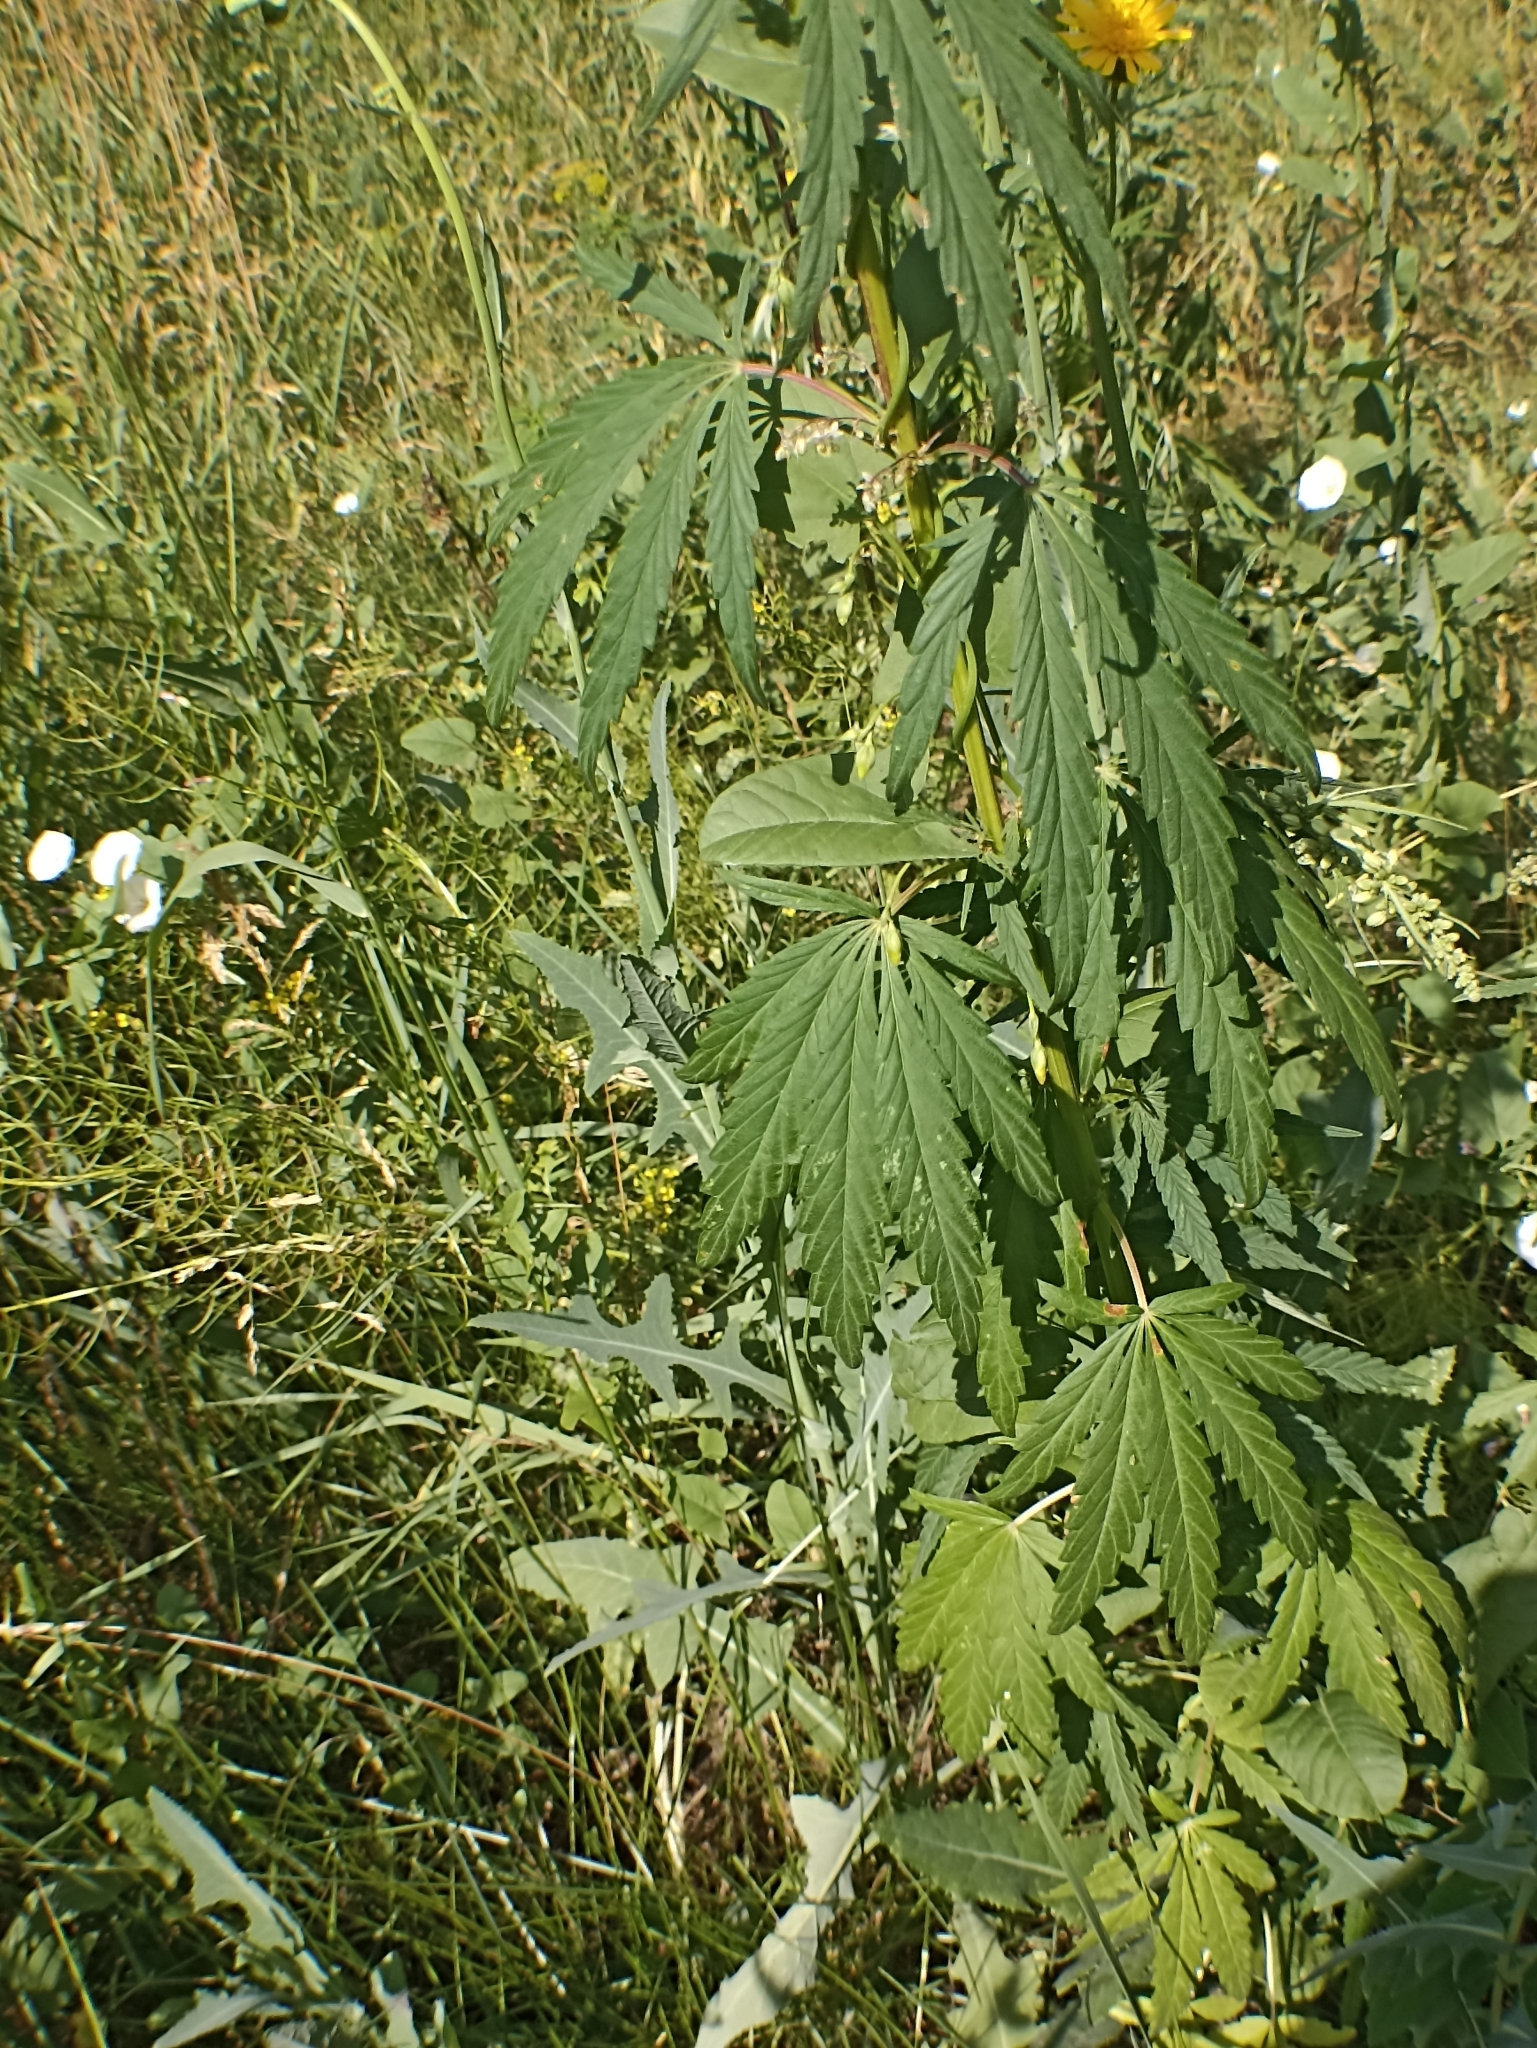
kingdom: Plantae
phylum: Tracheophyta
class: Magnoliopsida
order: Rosales
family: Cannabaceae
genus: Cannabis
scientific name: Cannabis sativa
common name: Hemp
